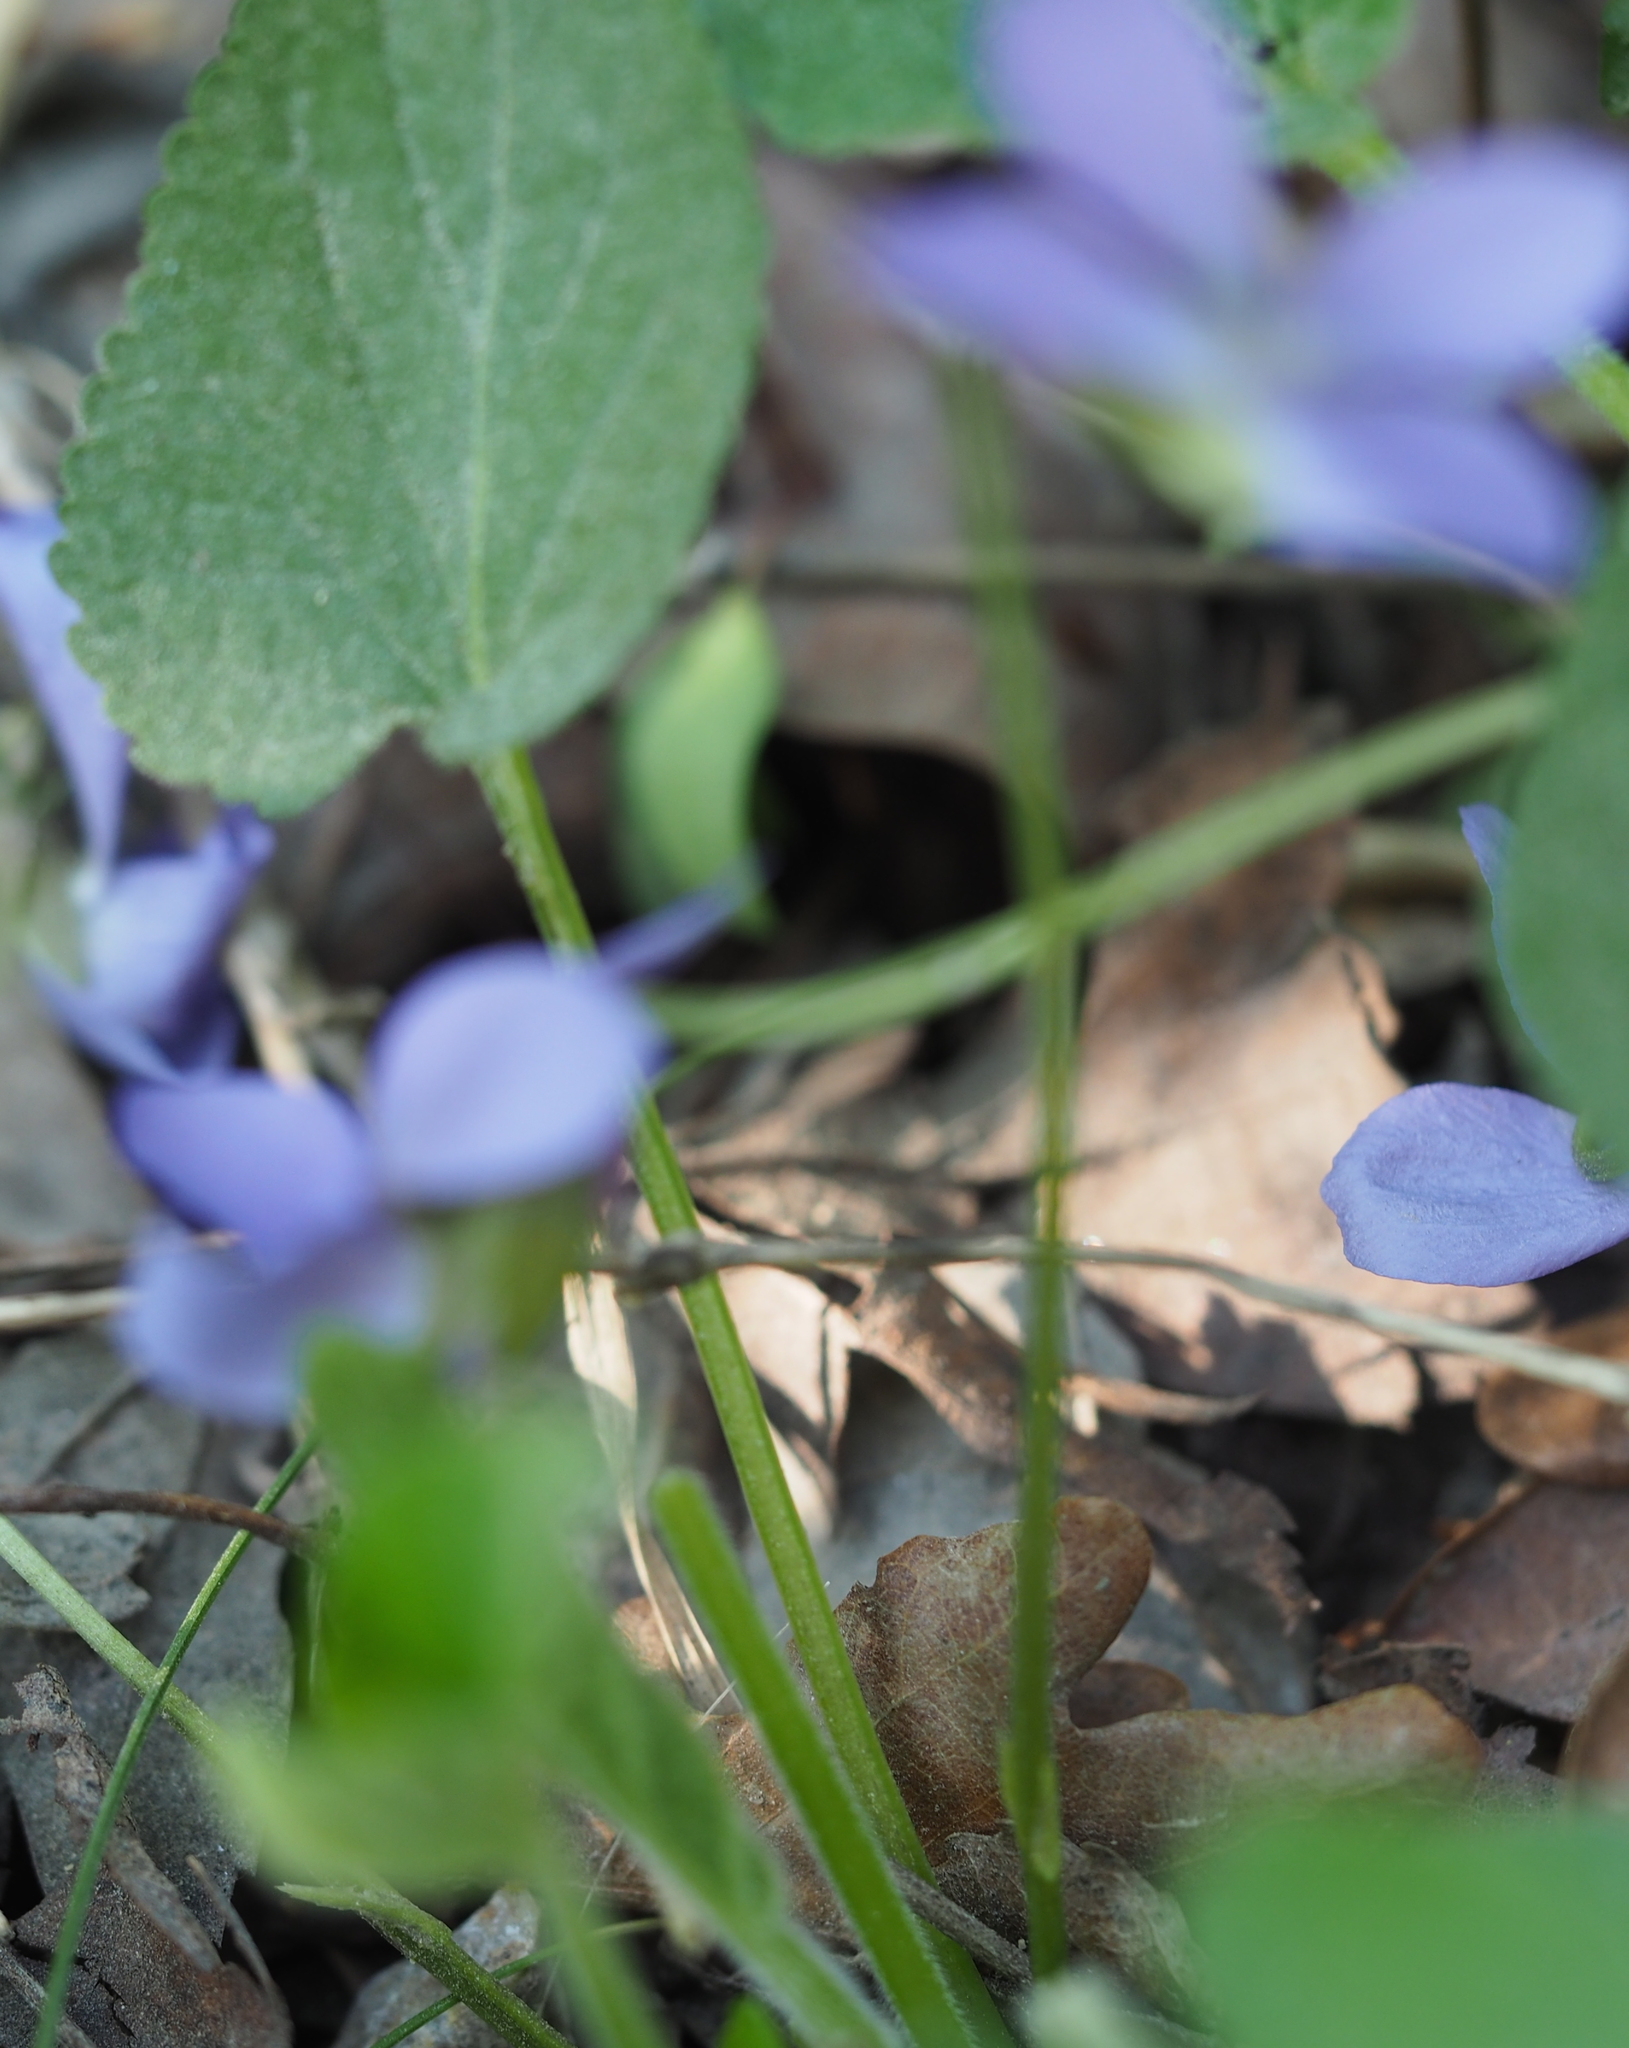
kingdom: Plantae
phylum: Tracheophyta
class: Magnoliopsida
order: Malpighiales
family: Violaceae
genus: Viola
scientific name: Viola hirta
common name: Hairy violet
